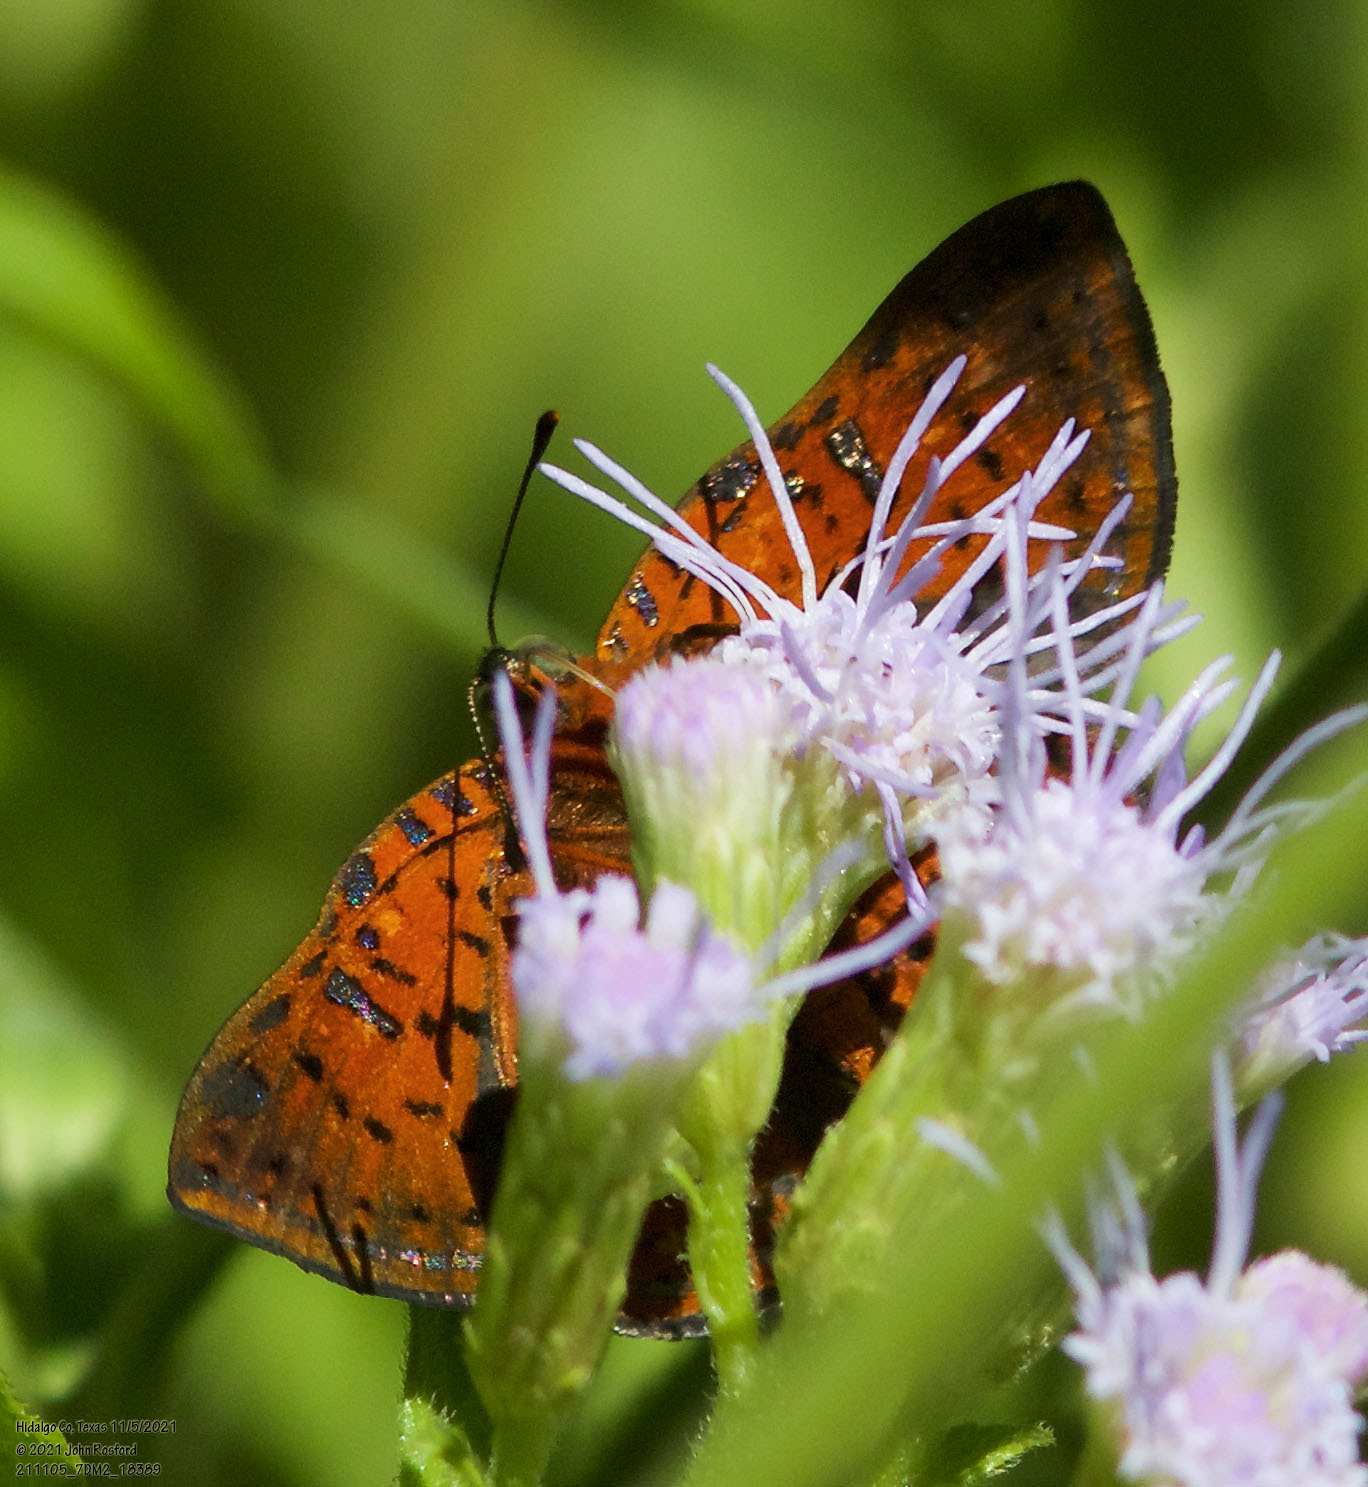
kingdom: Animalia
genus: Caria
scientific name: Caria ino
